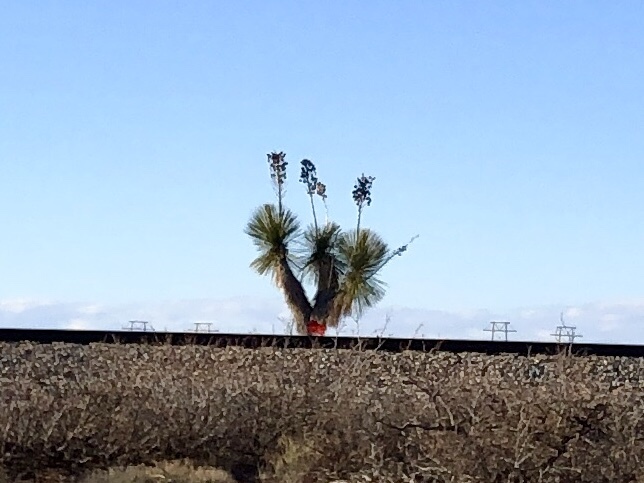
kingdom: Plantae
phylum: Tracheophyta
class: Liliopsida
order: Asparagales
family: Asparagaceae
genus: Yucca
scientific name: Yucca elata
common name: Palmella
